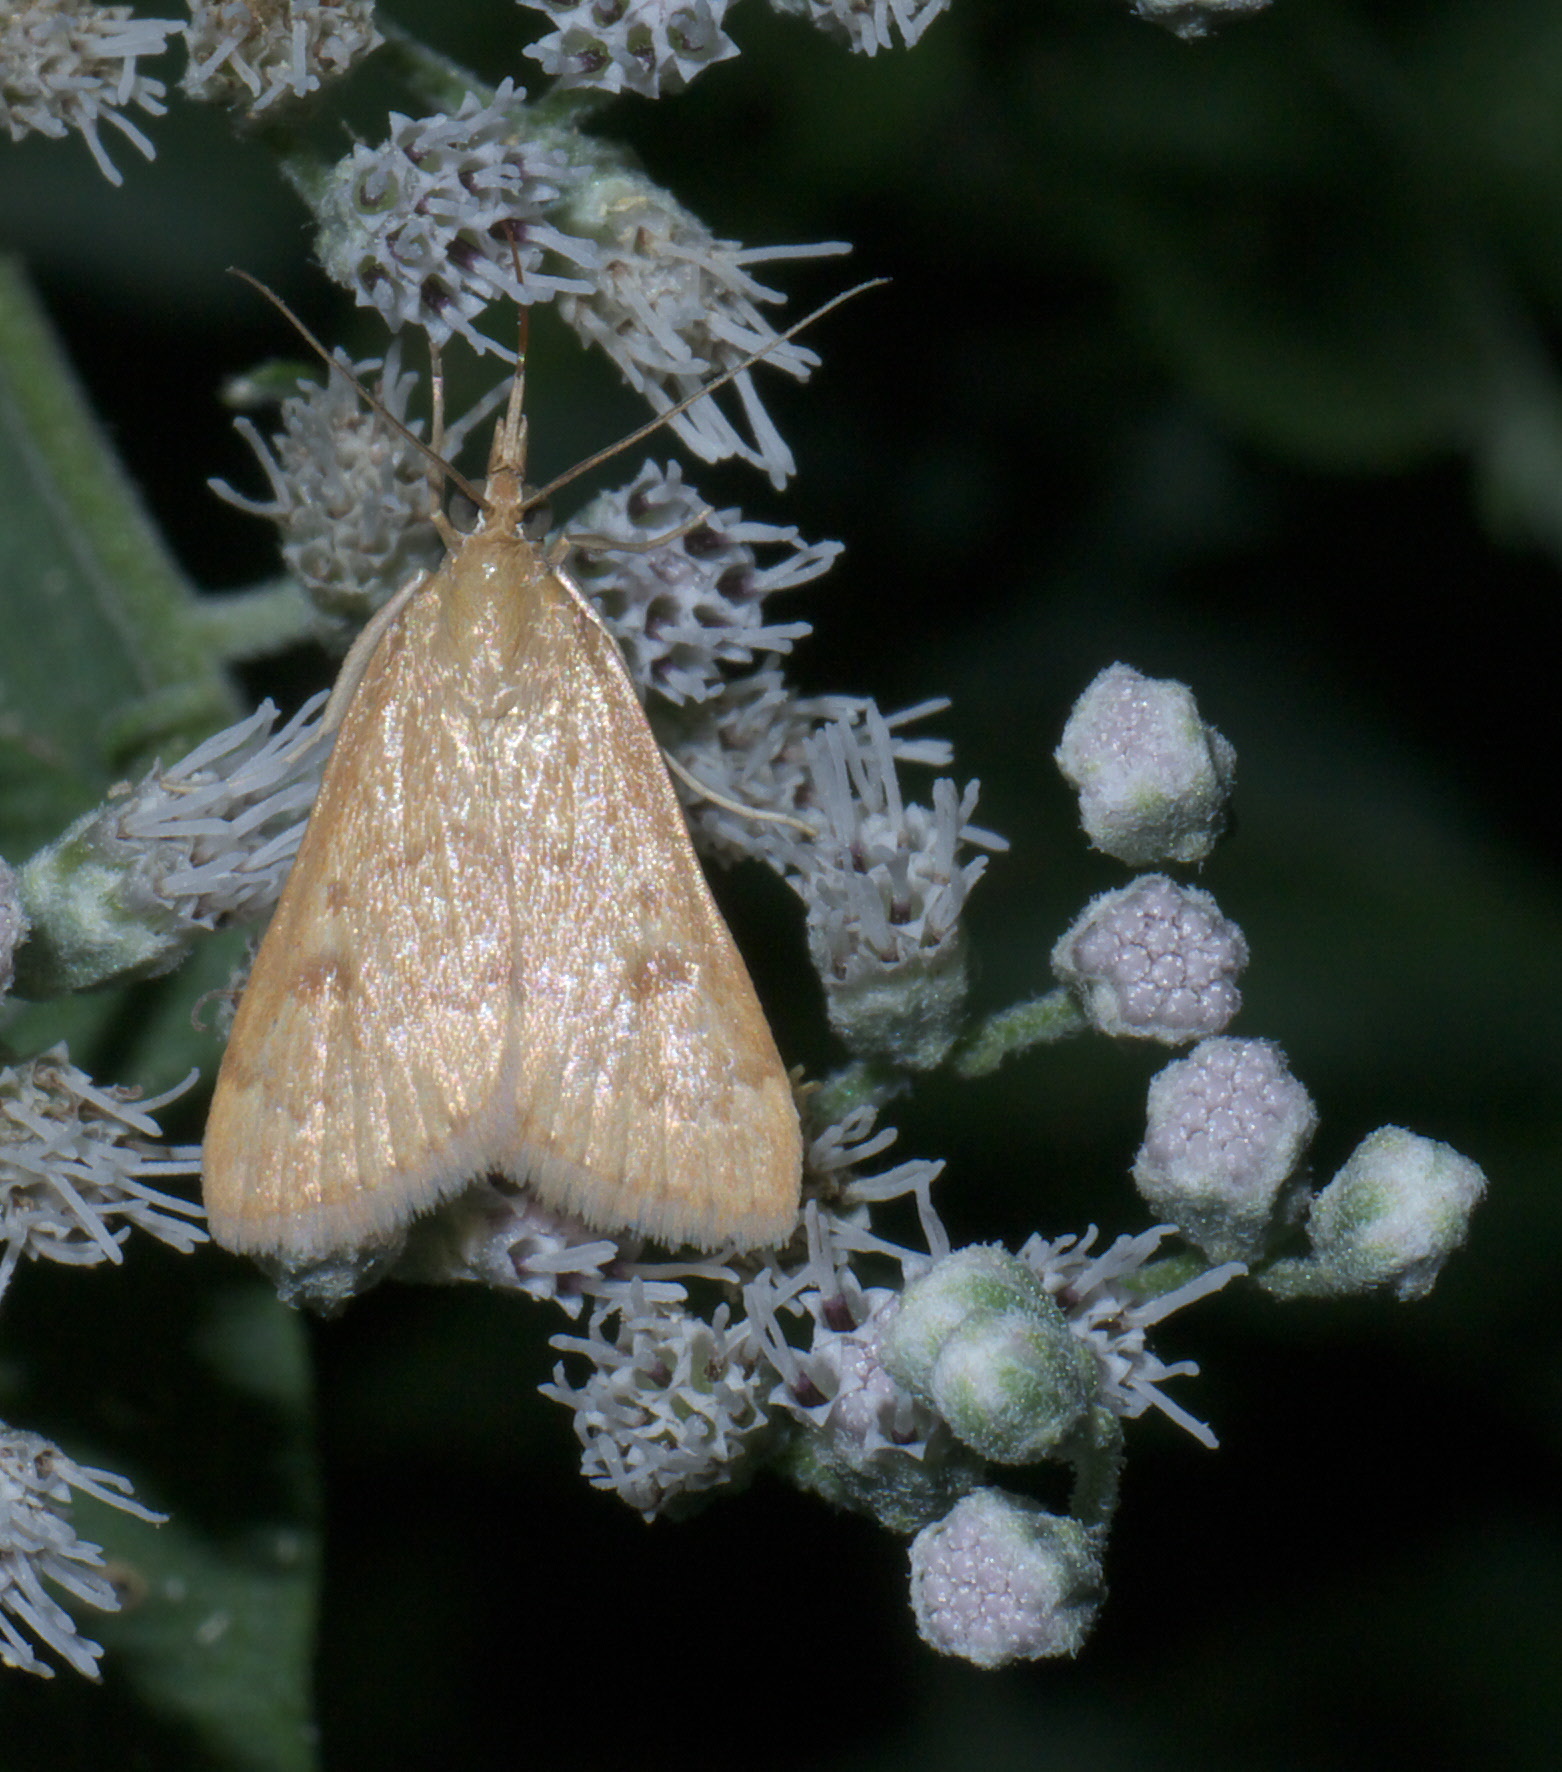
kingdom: Animalia
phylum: Arthropoda
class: Insecta
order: Lepidoptera
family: Crambidae
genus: Achyra
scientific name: Achyra rantalis
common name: Garden webworm
